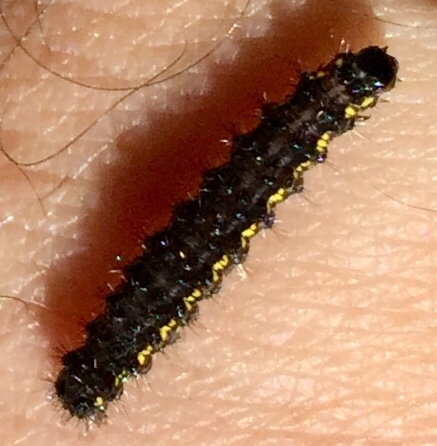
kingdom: Animalia
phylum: Arthropoda
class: Insecta
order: Lepidoptera
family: Erebidae
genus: Haploa
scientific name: Haploa
